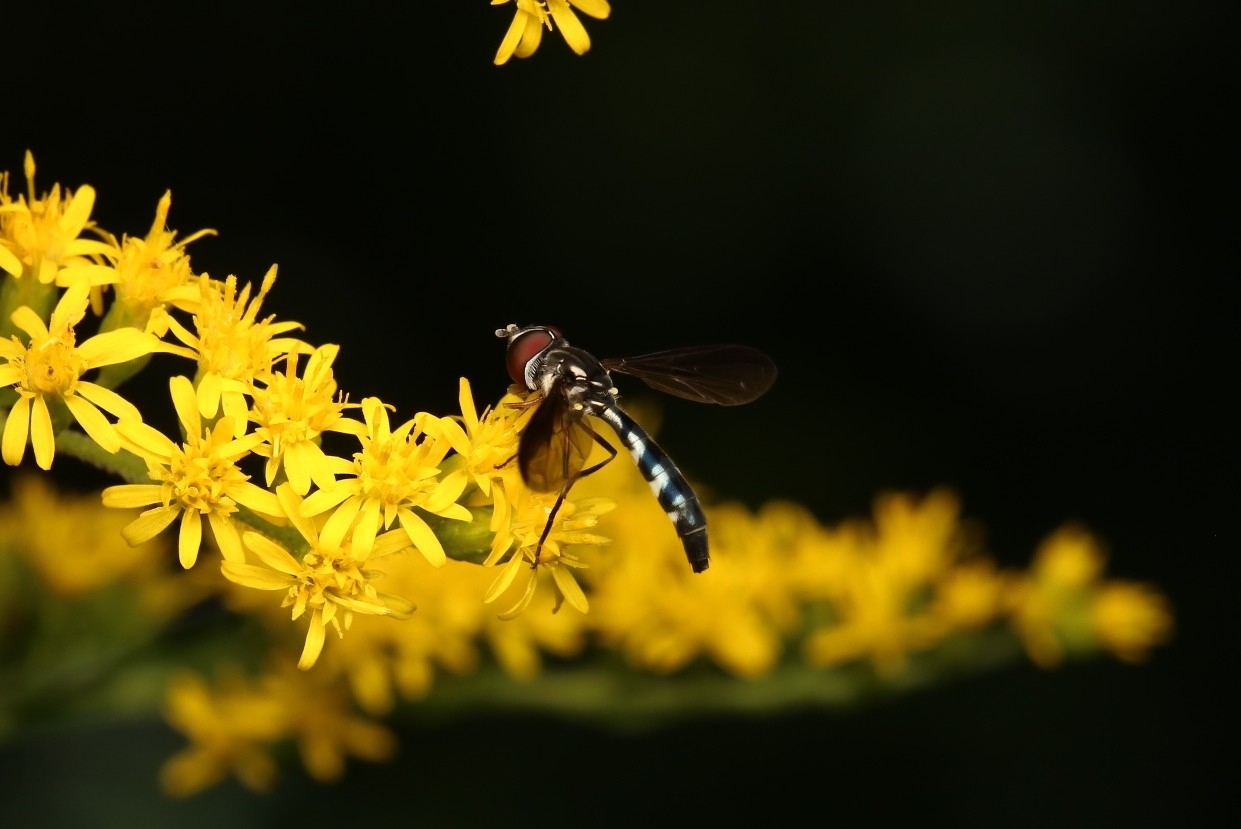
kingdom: Animalia
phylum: Arthropoda
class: Insecta
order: Diptera
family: Syrphidae
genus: Ocyptamus
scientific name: Ocyptamus costatus
